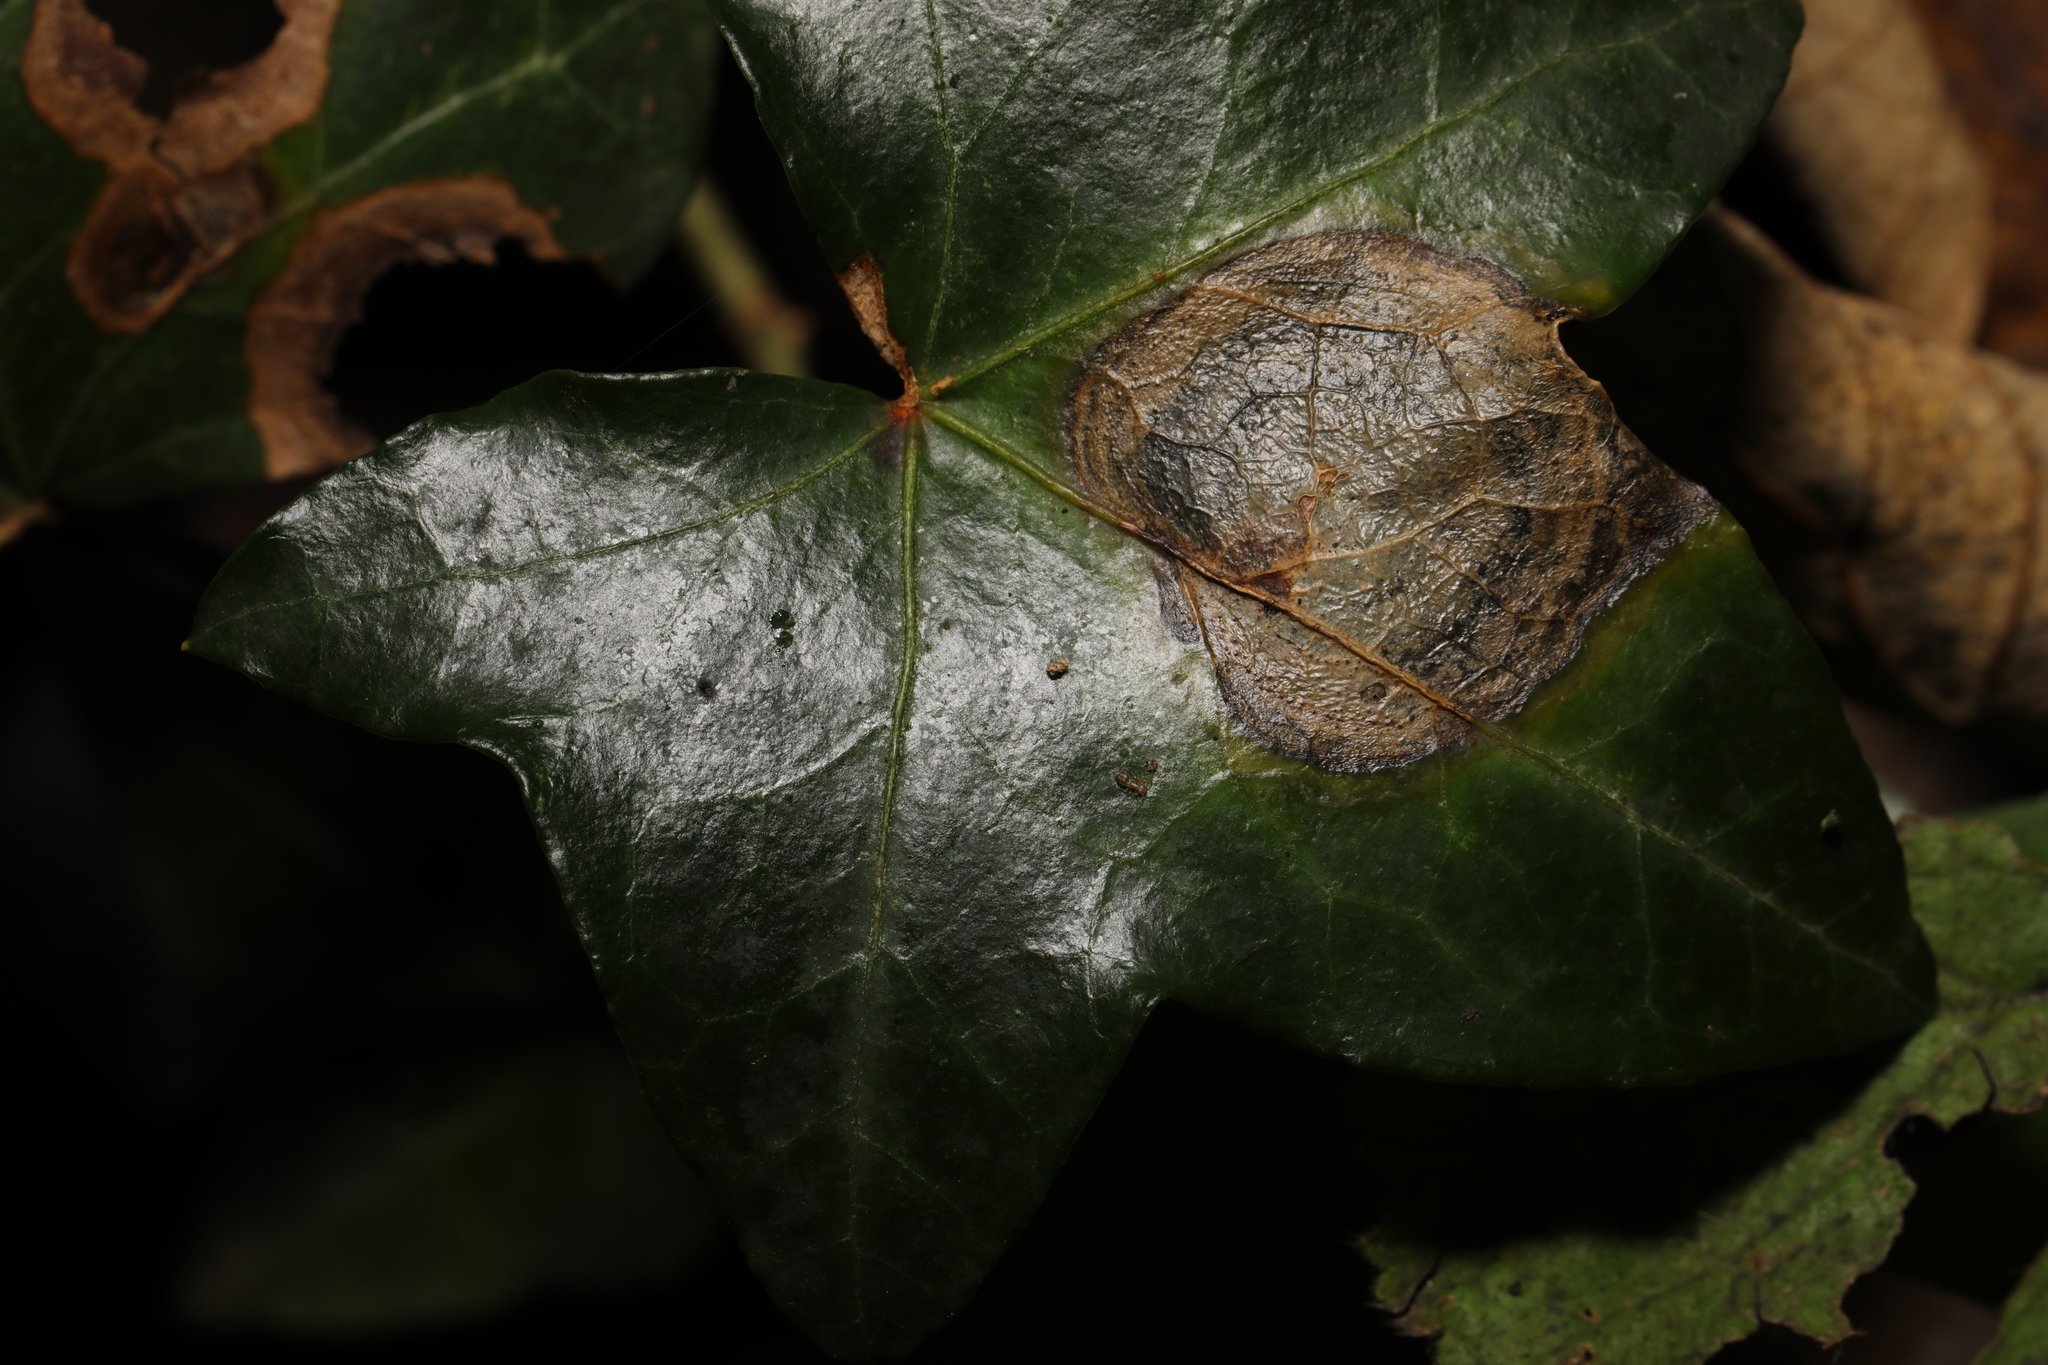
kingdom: Fungi
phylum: Ascomycota
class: Dothideomycetes
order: Pleosporales
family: Didymellaceae
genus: Boeremia
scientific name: Boeremia hedericola
